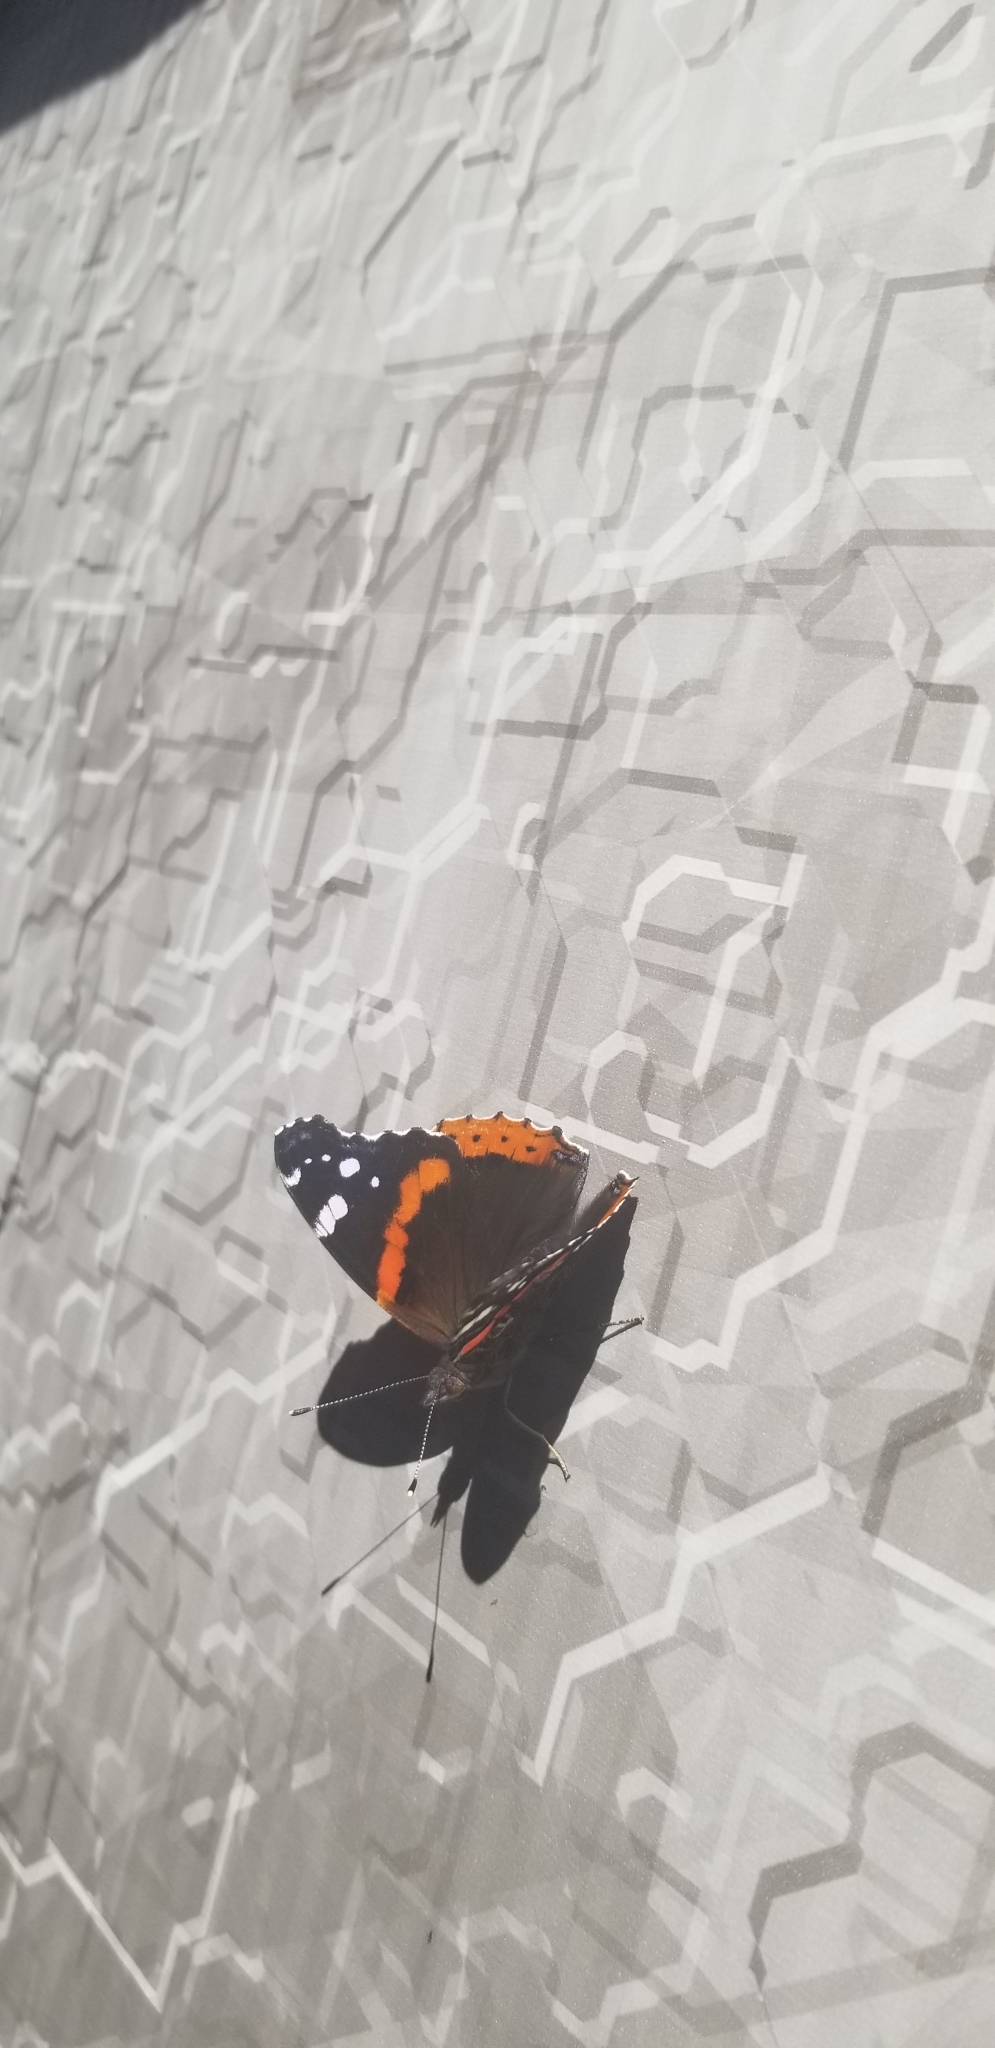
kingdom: Animalia
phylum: Arthropoda
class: Insecta
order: Lepidoptera
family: Nymphalidae
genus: Vanessa
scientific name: Vanessa atalanta
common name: Red admiral
